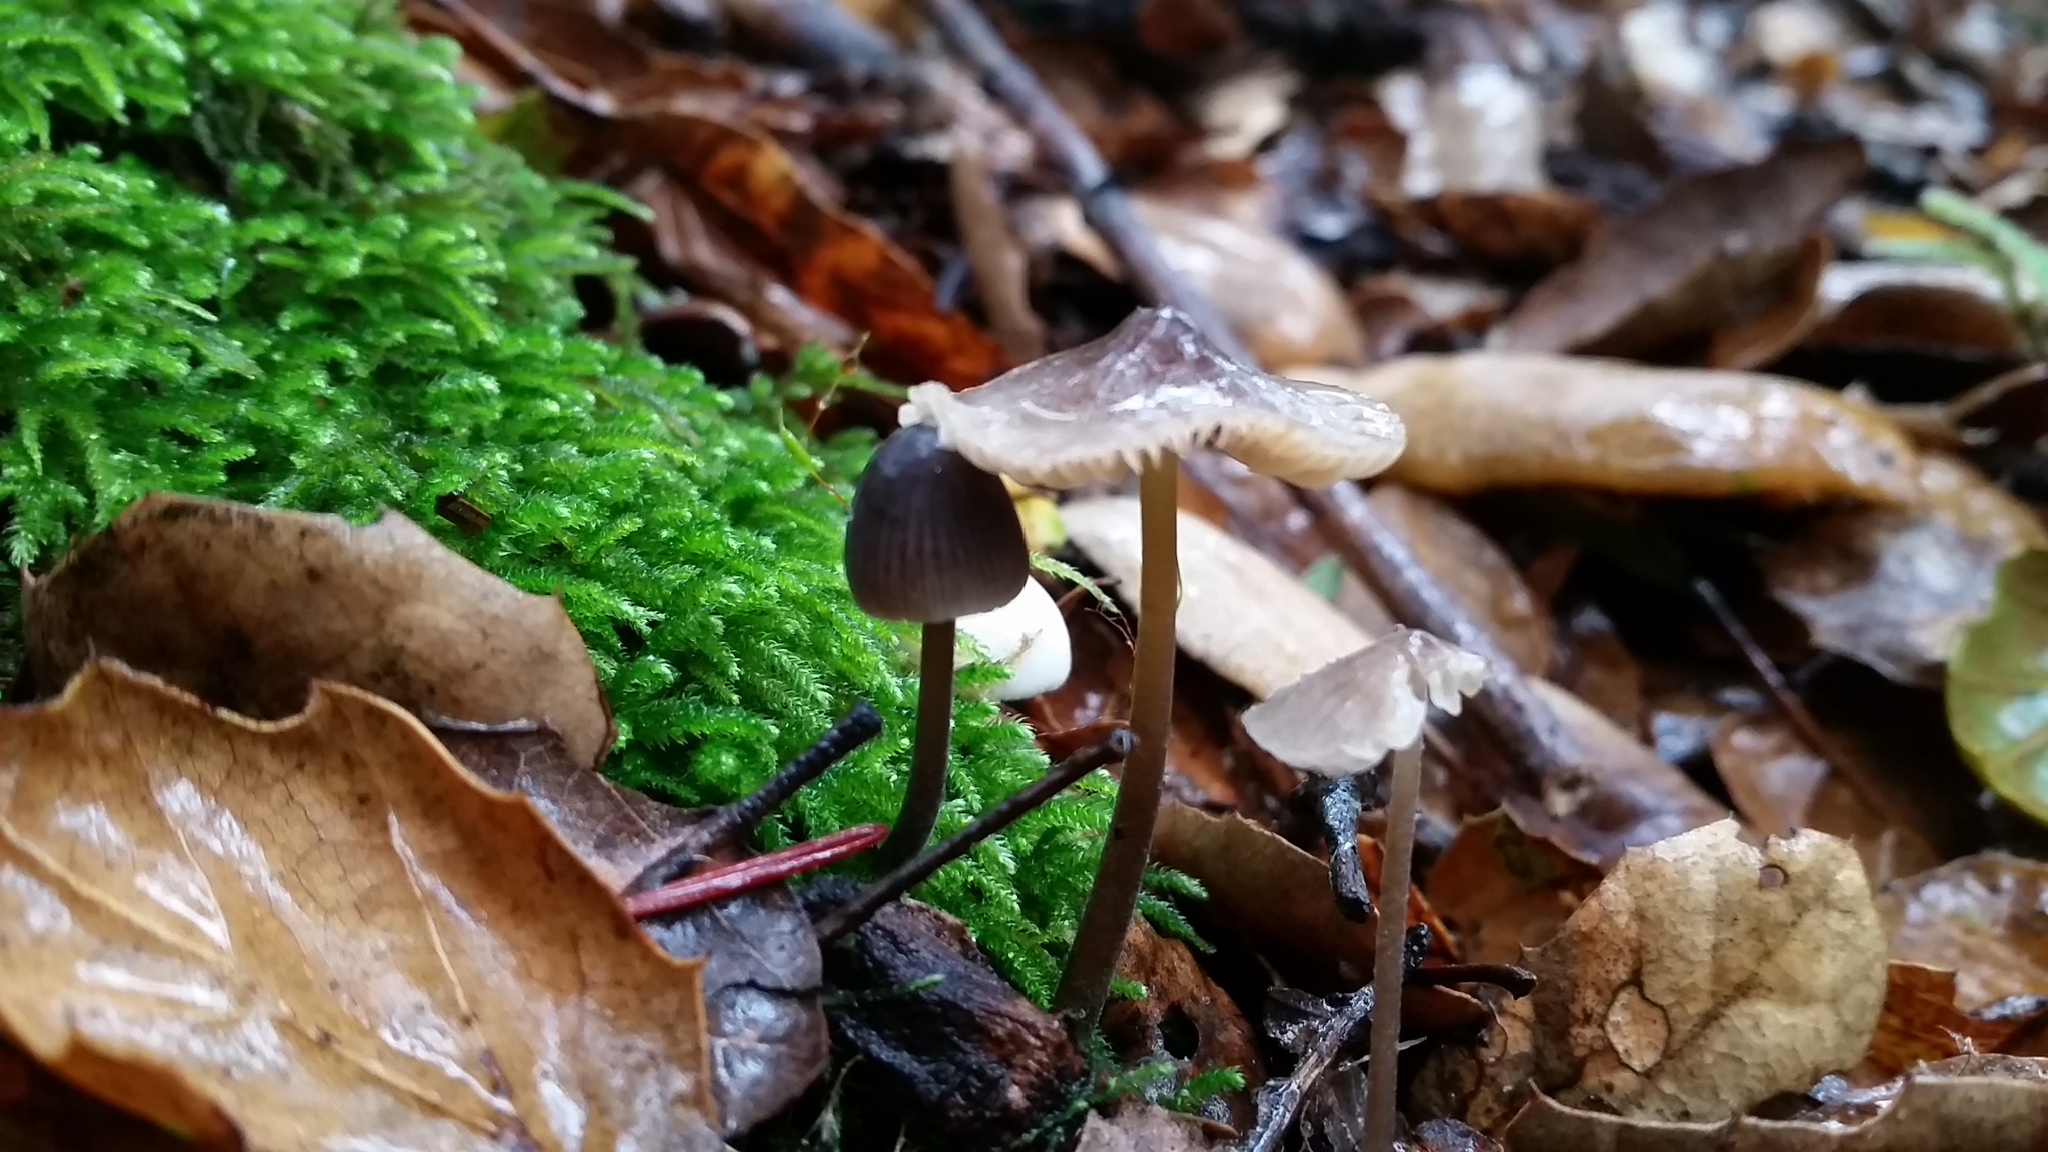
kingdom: Fungi
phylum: Basidiomycota
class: Agaricomycetes
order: Agaricales
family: Mycenaceae
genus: Mycena
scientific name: Mycena leptocephala
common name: Nitrous bonnet
